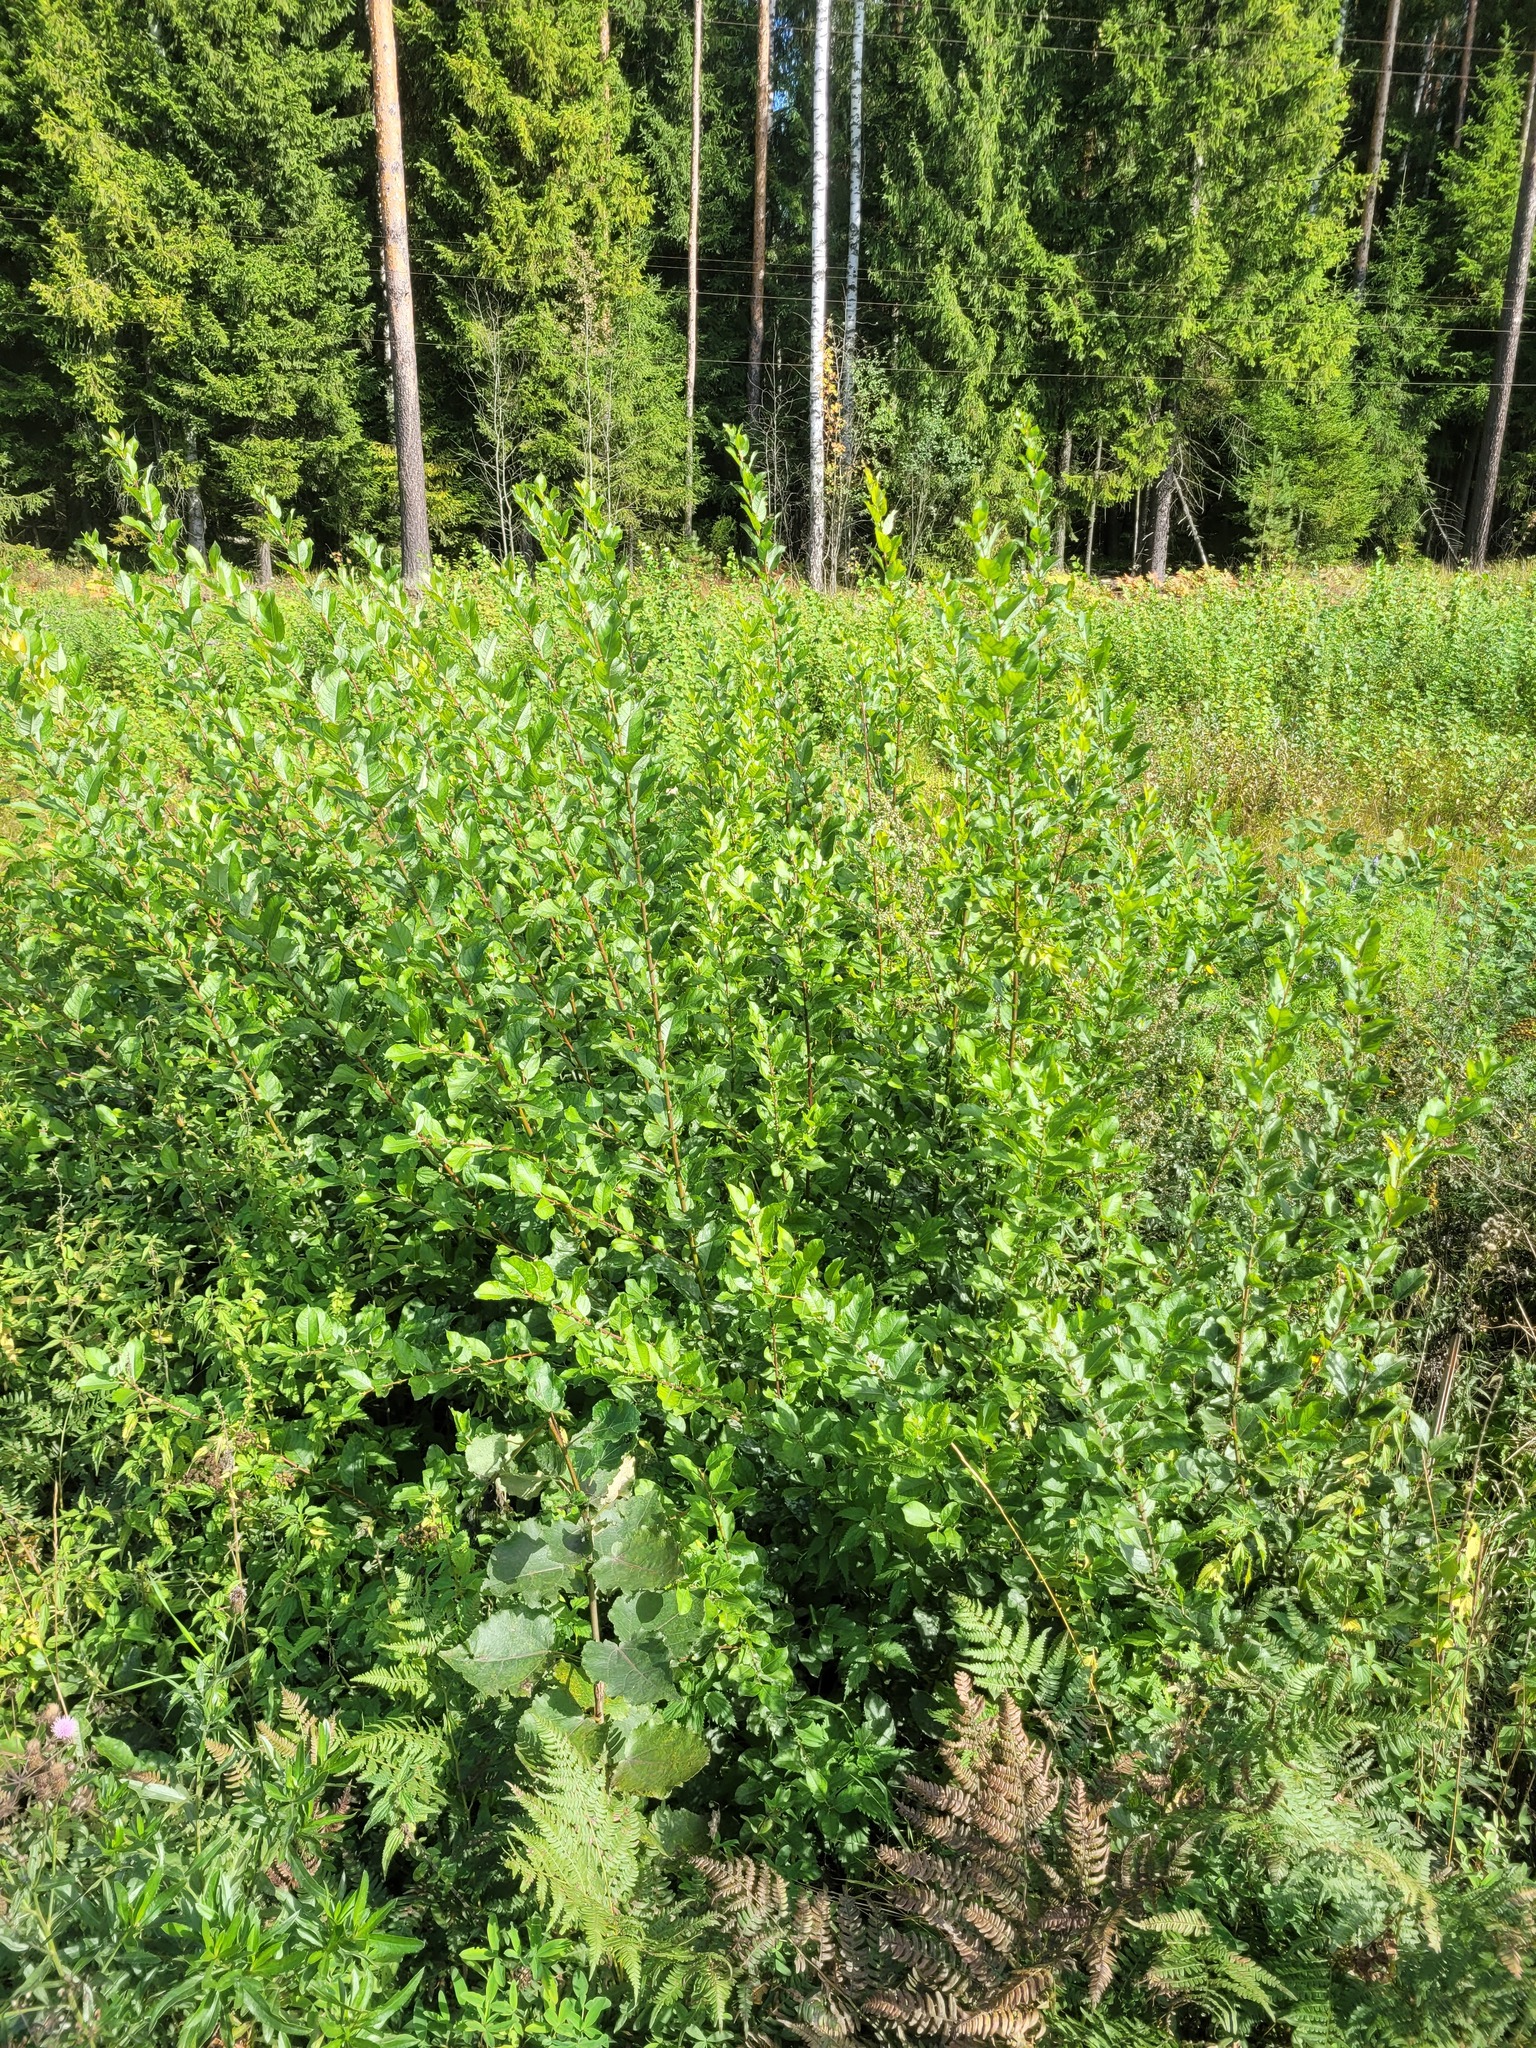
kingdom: Plantae
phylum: Tracheophyta
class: Magnoliopsida
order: Malpighiales
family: Salicaceae
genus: Salix
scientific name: Salix myrsinifolia
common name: Dark-leaved willow
